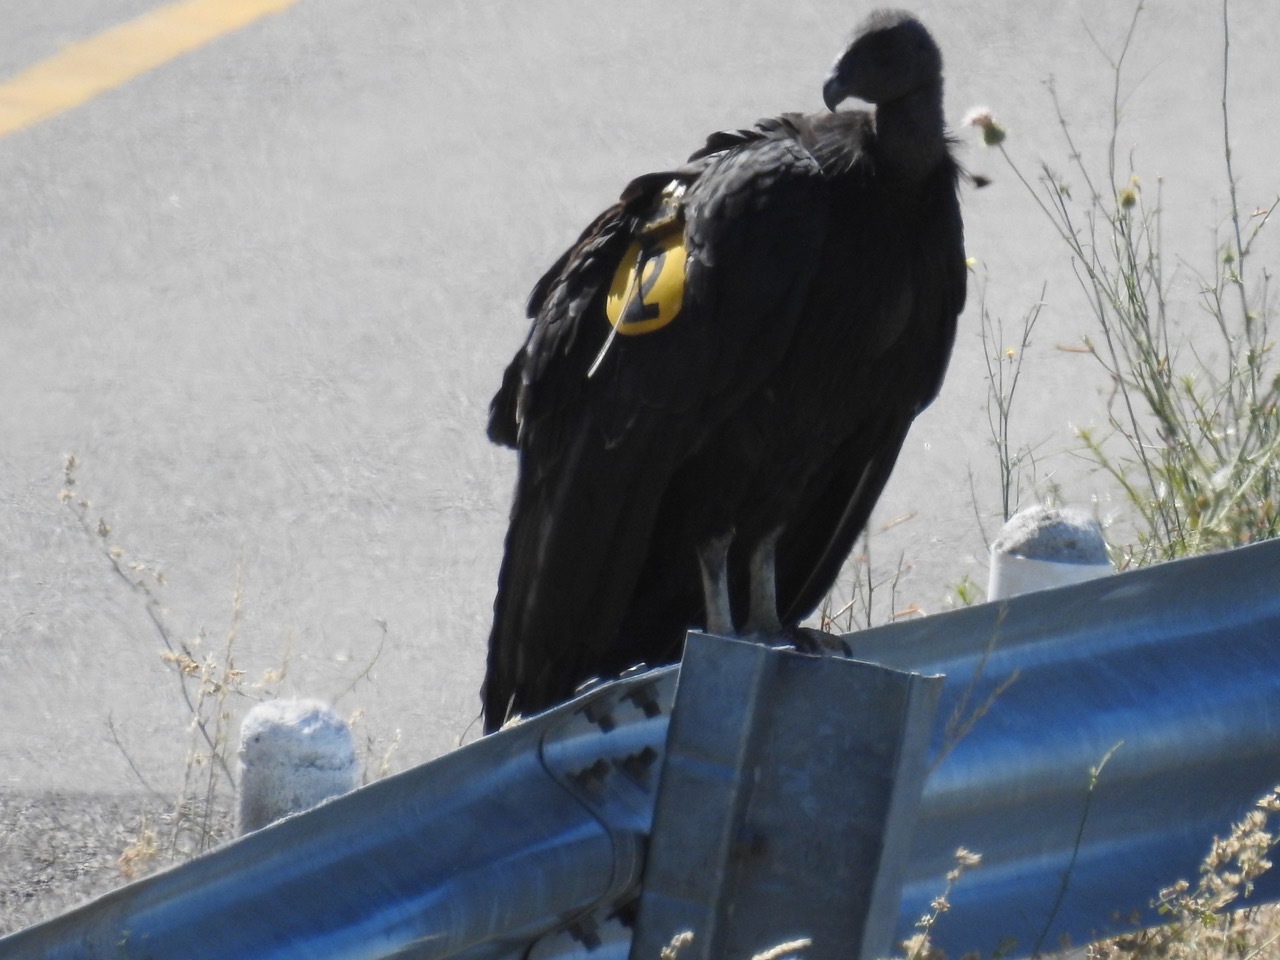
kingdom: Animalia
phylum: Chordata
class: Aves
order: Accipitriformes
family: Cathartidae
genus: Gymnogyps
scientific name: Gymnogyps californianus
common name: California condor
